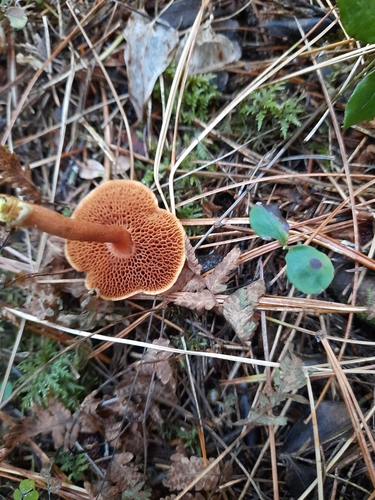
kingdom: Fungi
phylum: Basidiomycota
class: Agaricomycetes
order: Boletales
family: Boletaceae
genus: Chalciporus
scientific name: Chalciporus piperatus
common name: Peppery bolete
